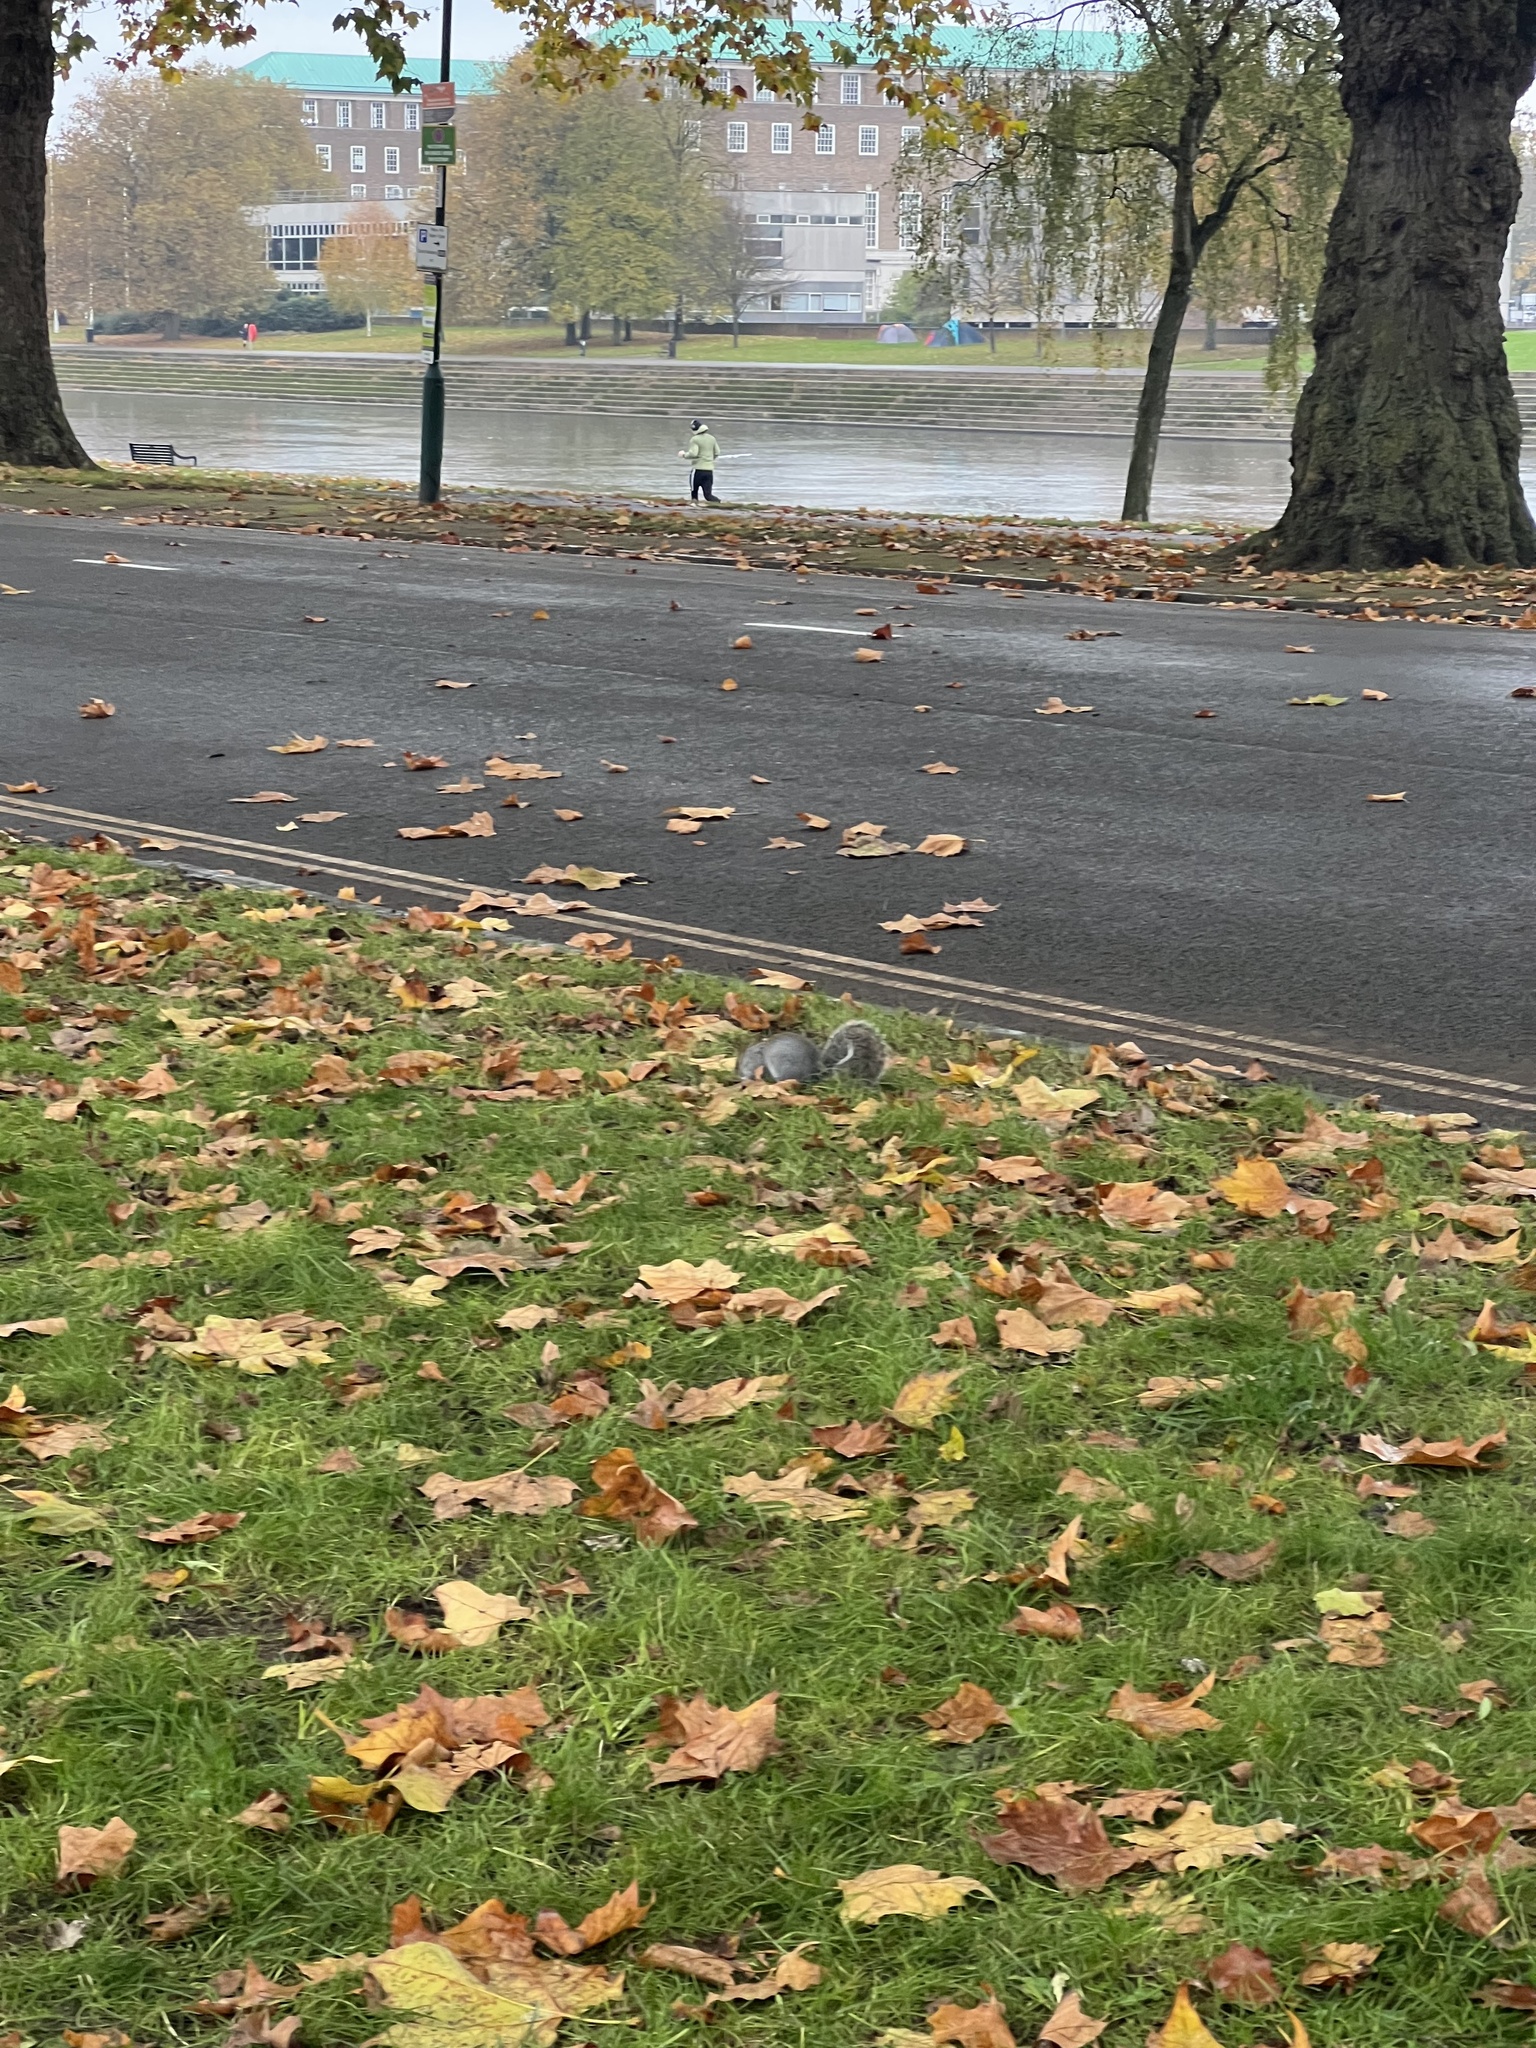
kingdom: Animalia
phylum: Chordata
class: Mammalia
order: Rodentia
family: Sciuridae
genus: Sciurus
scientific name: Sciurus carolinensis
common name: Eastern gray squirrel
